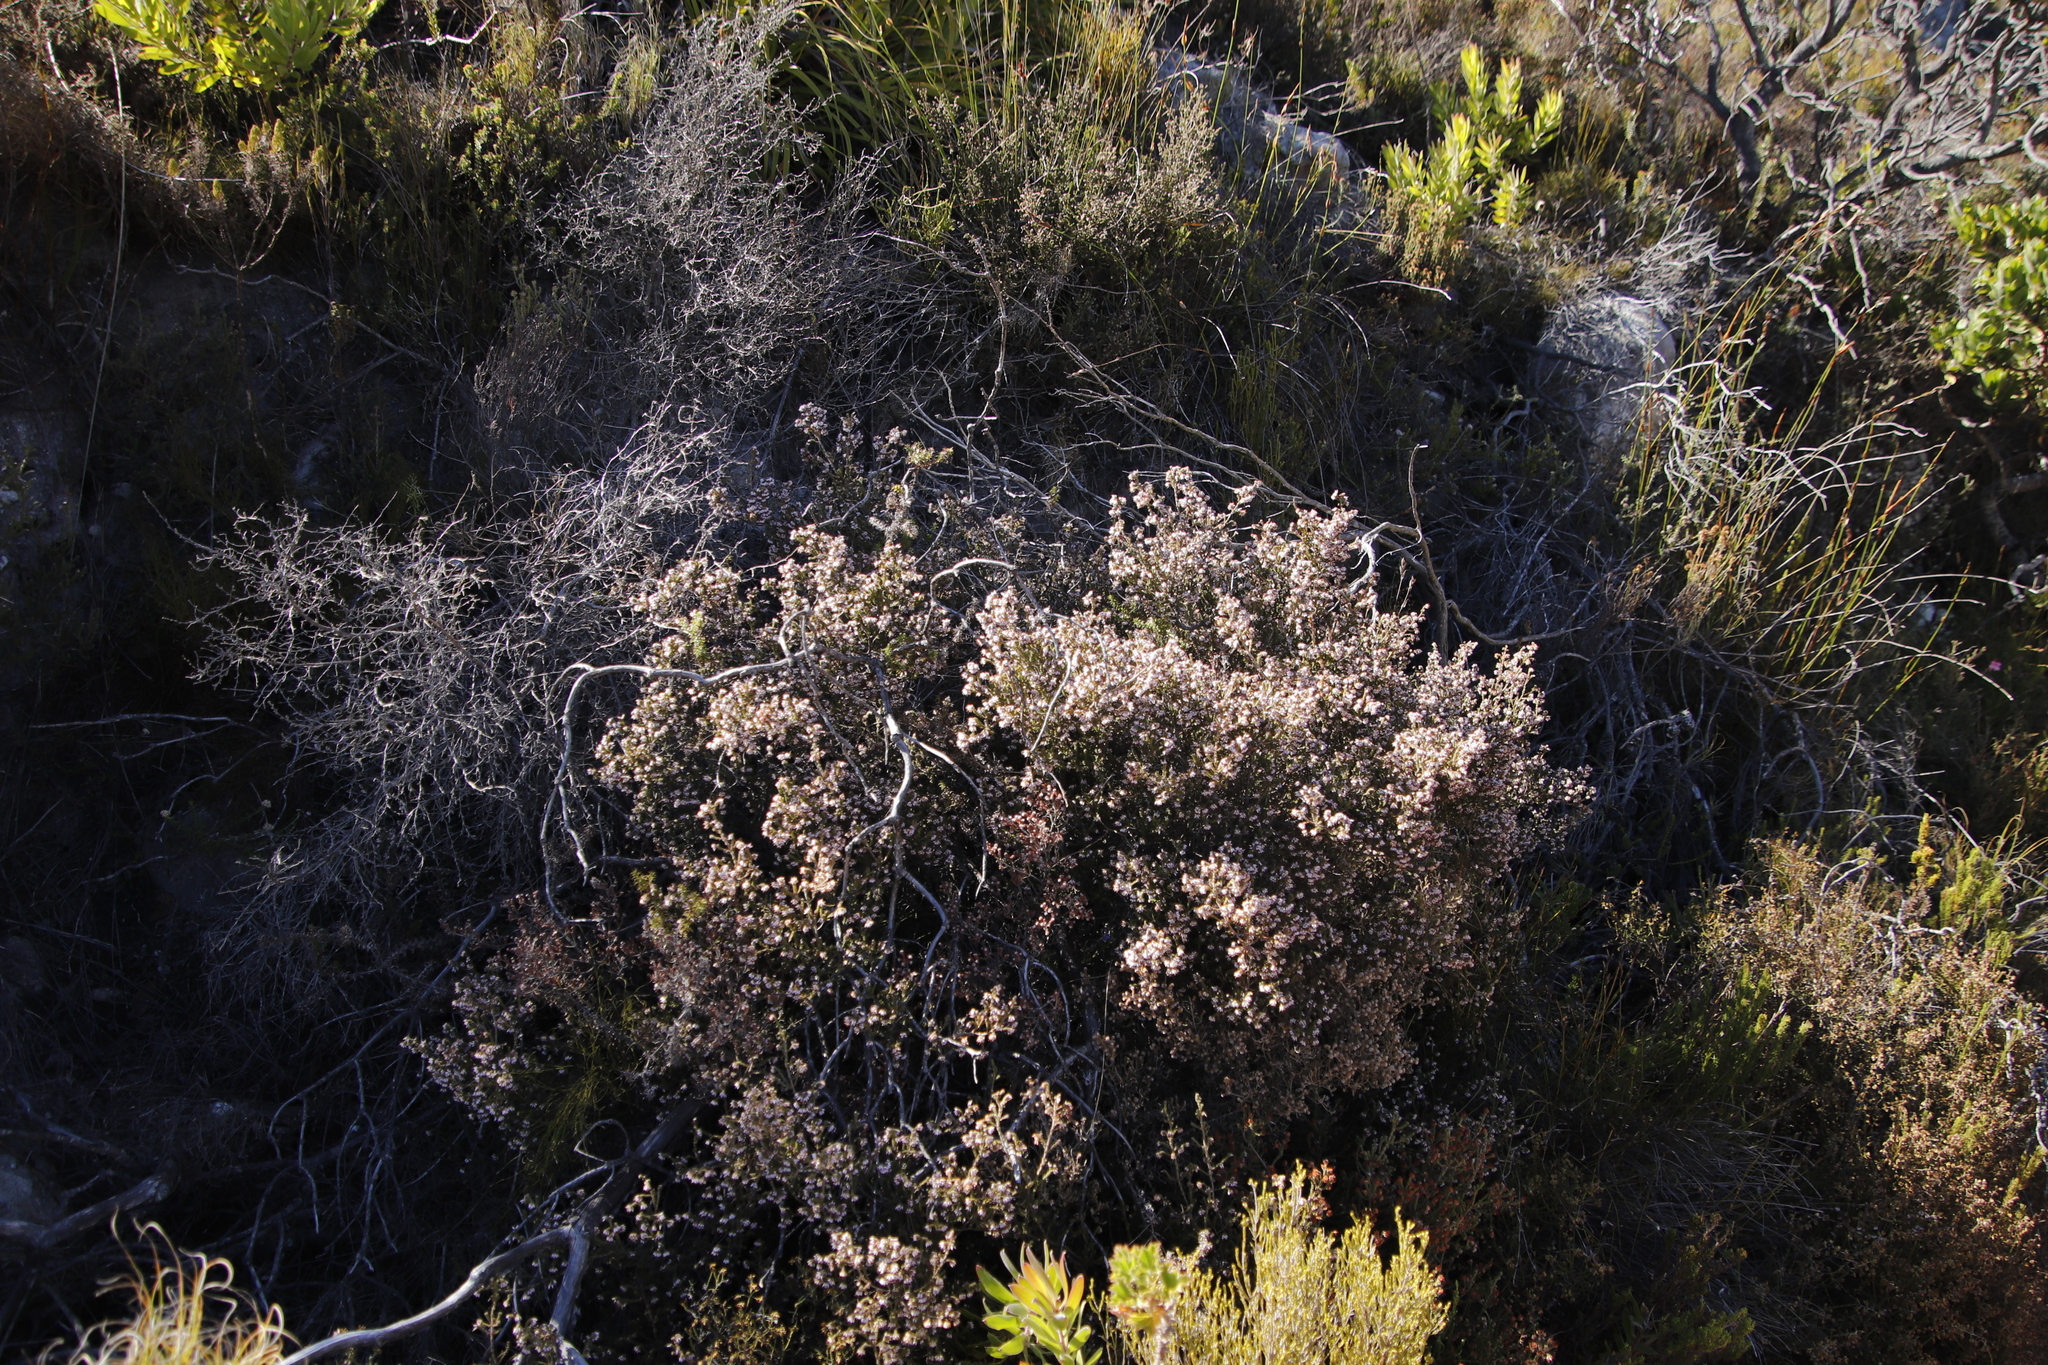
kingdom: Plantae
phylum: Tracheophyta
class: Magnoliopsida
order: Ericales
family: Ericaceae
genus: Erica
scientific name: Erica ericoides
